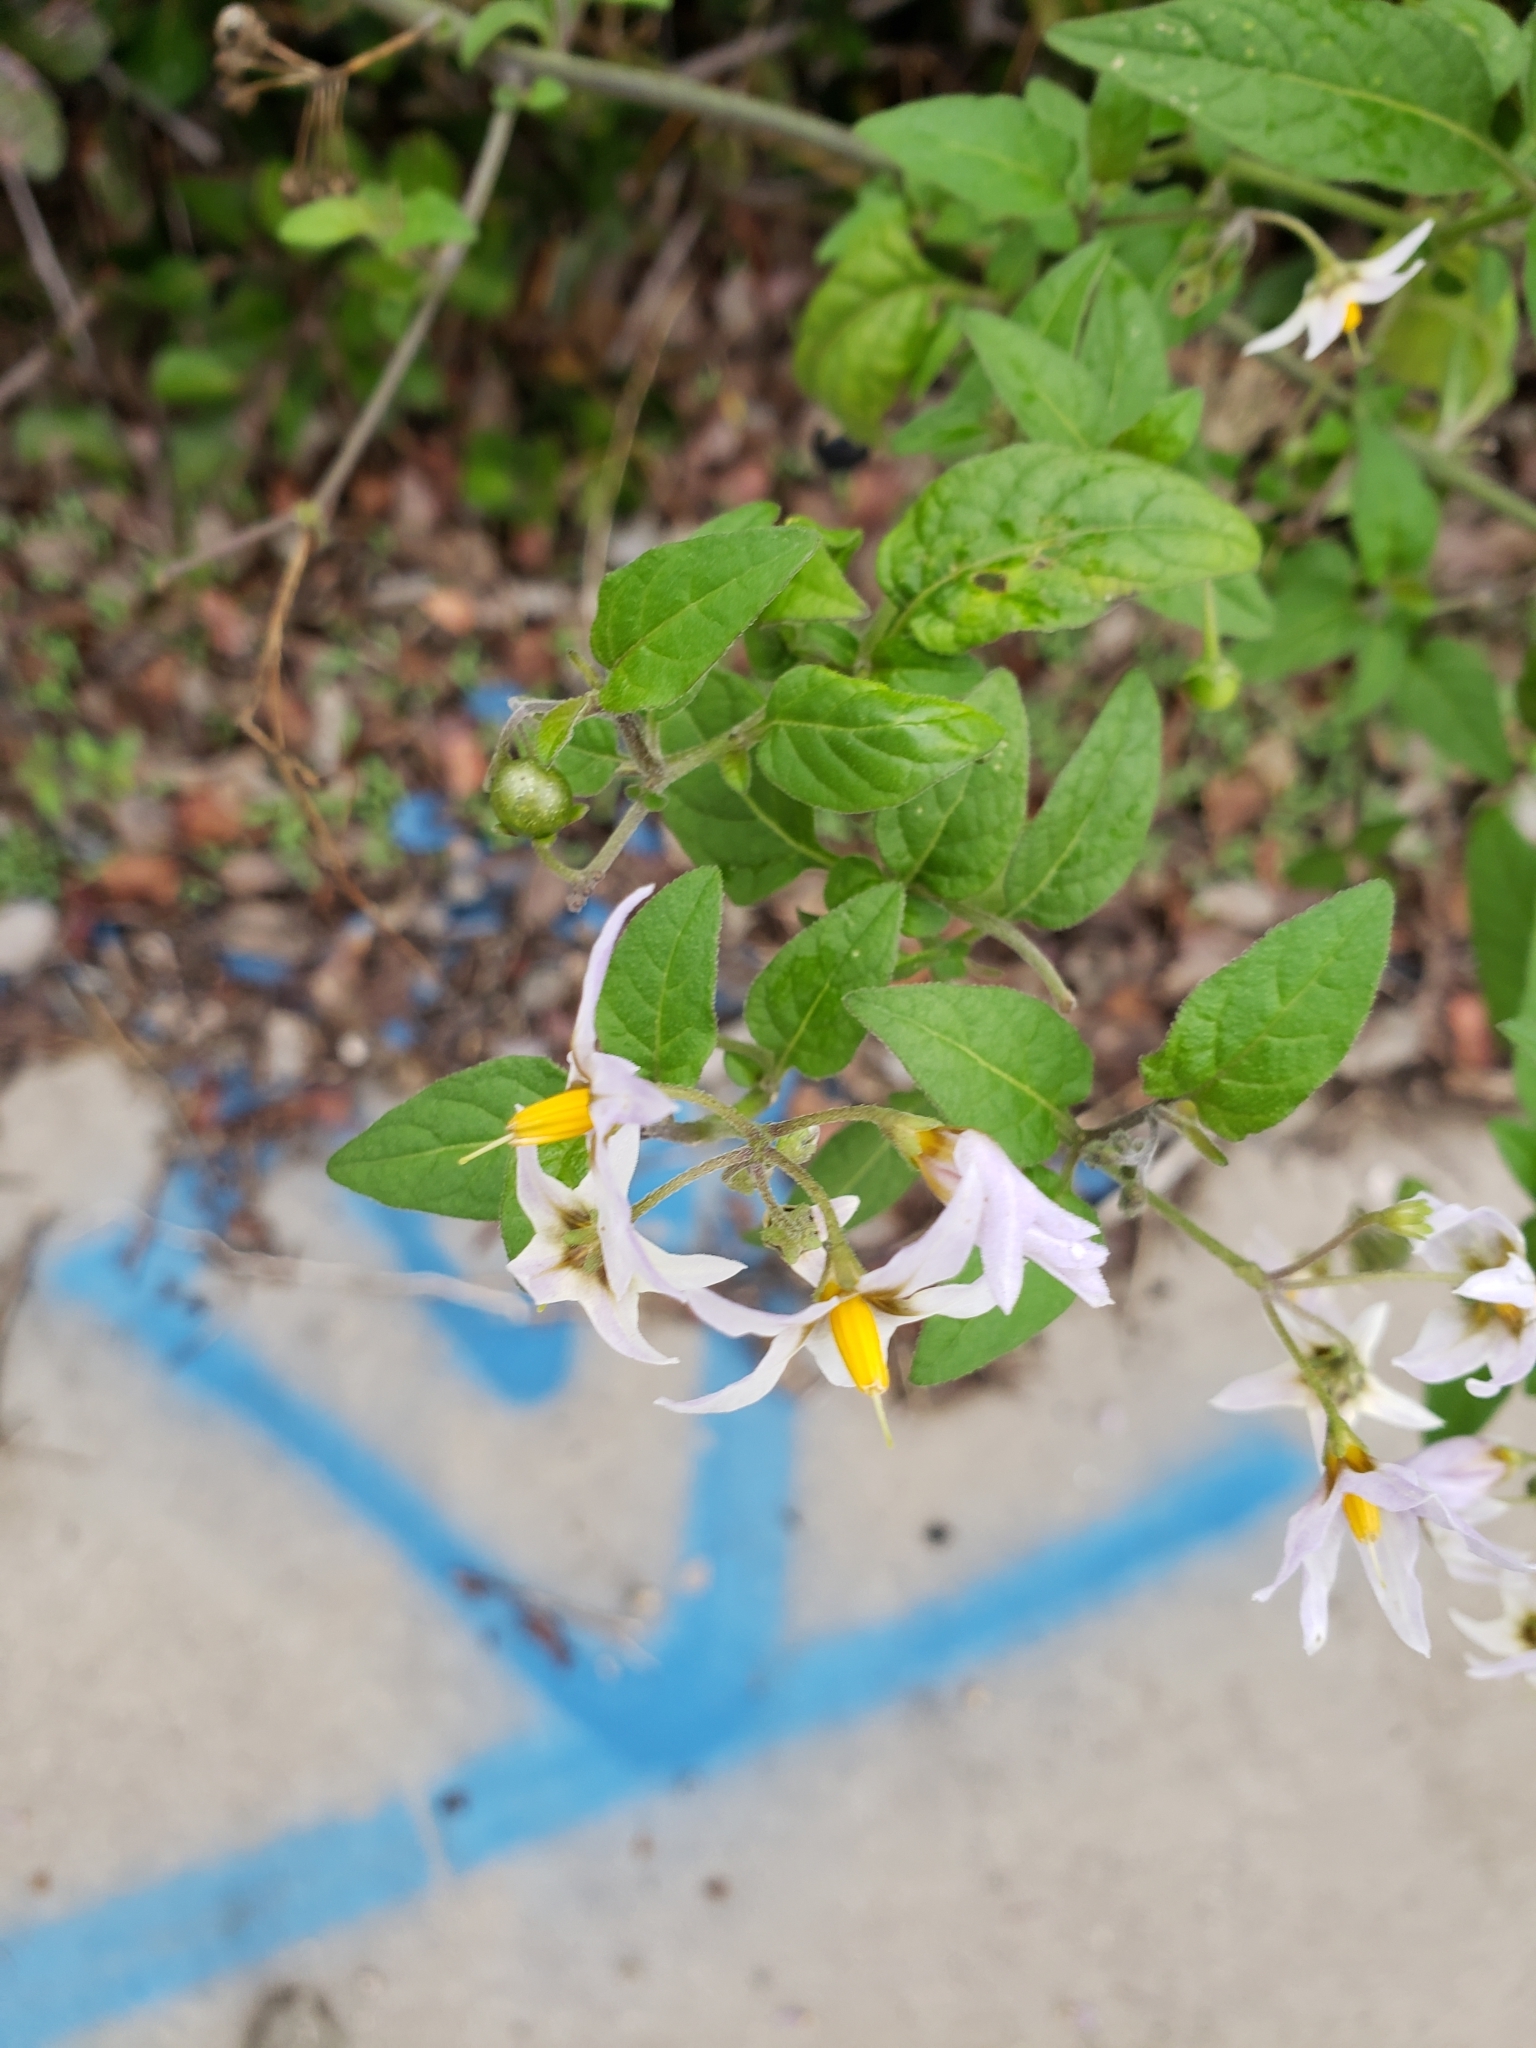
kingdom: Plantae
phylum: Tracheophyta
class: Magnoliopsida
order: Solanales
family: Solanaceae
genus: Solanum
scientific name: Solanum douglasii
